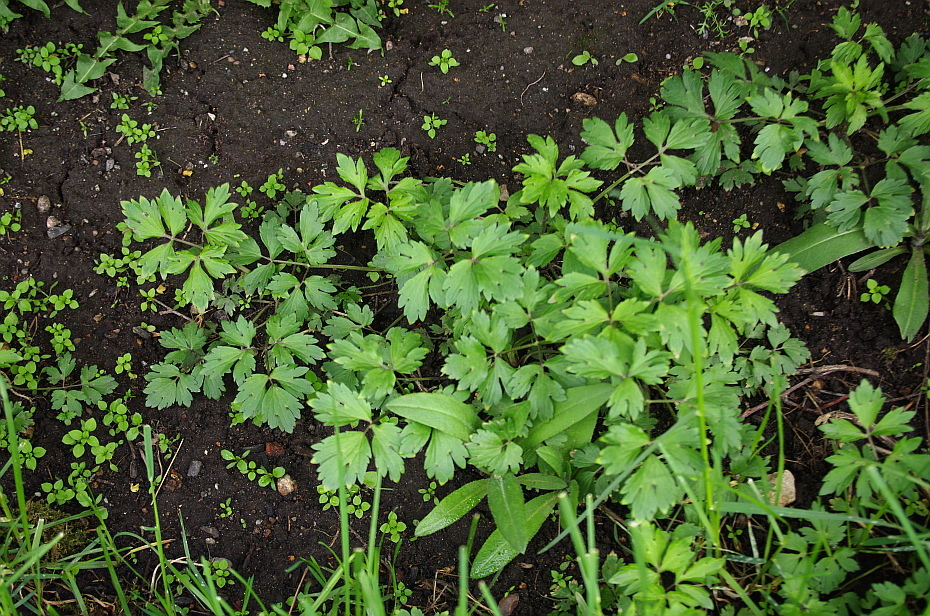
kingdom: Plantae
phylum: Tracheophyta
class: Magnoliopsida
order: Ranunculales
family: Ranunculaceae
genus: Ranunculus
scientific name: Ranunculus repens
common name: Creeping buttercup
